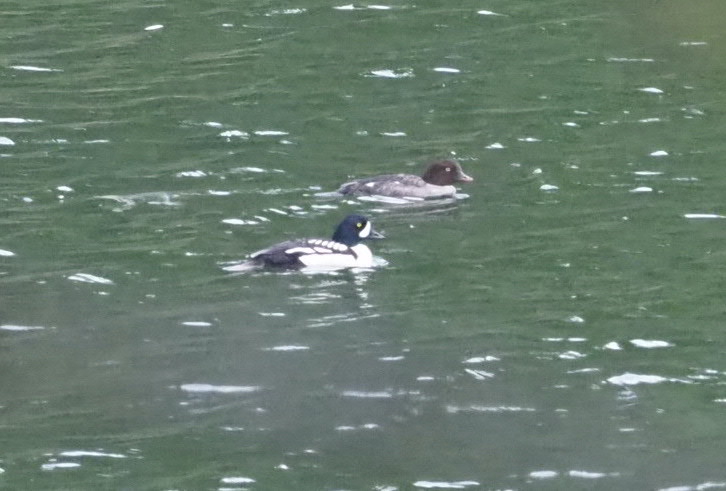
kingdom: Animalia
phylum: Chordata
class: Aves
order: Anseriformes
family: Anatidae
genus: Bucephala
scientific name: Bucephala islandica
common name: Barrow's goldeneye
